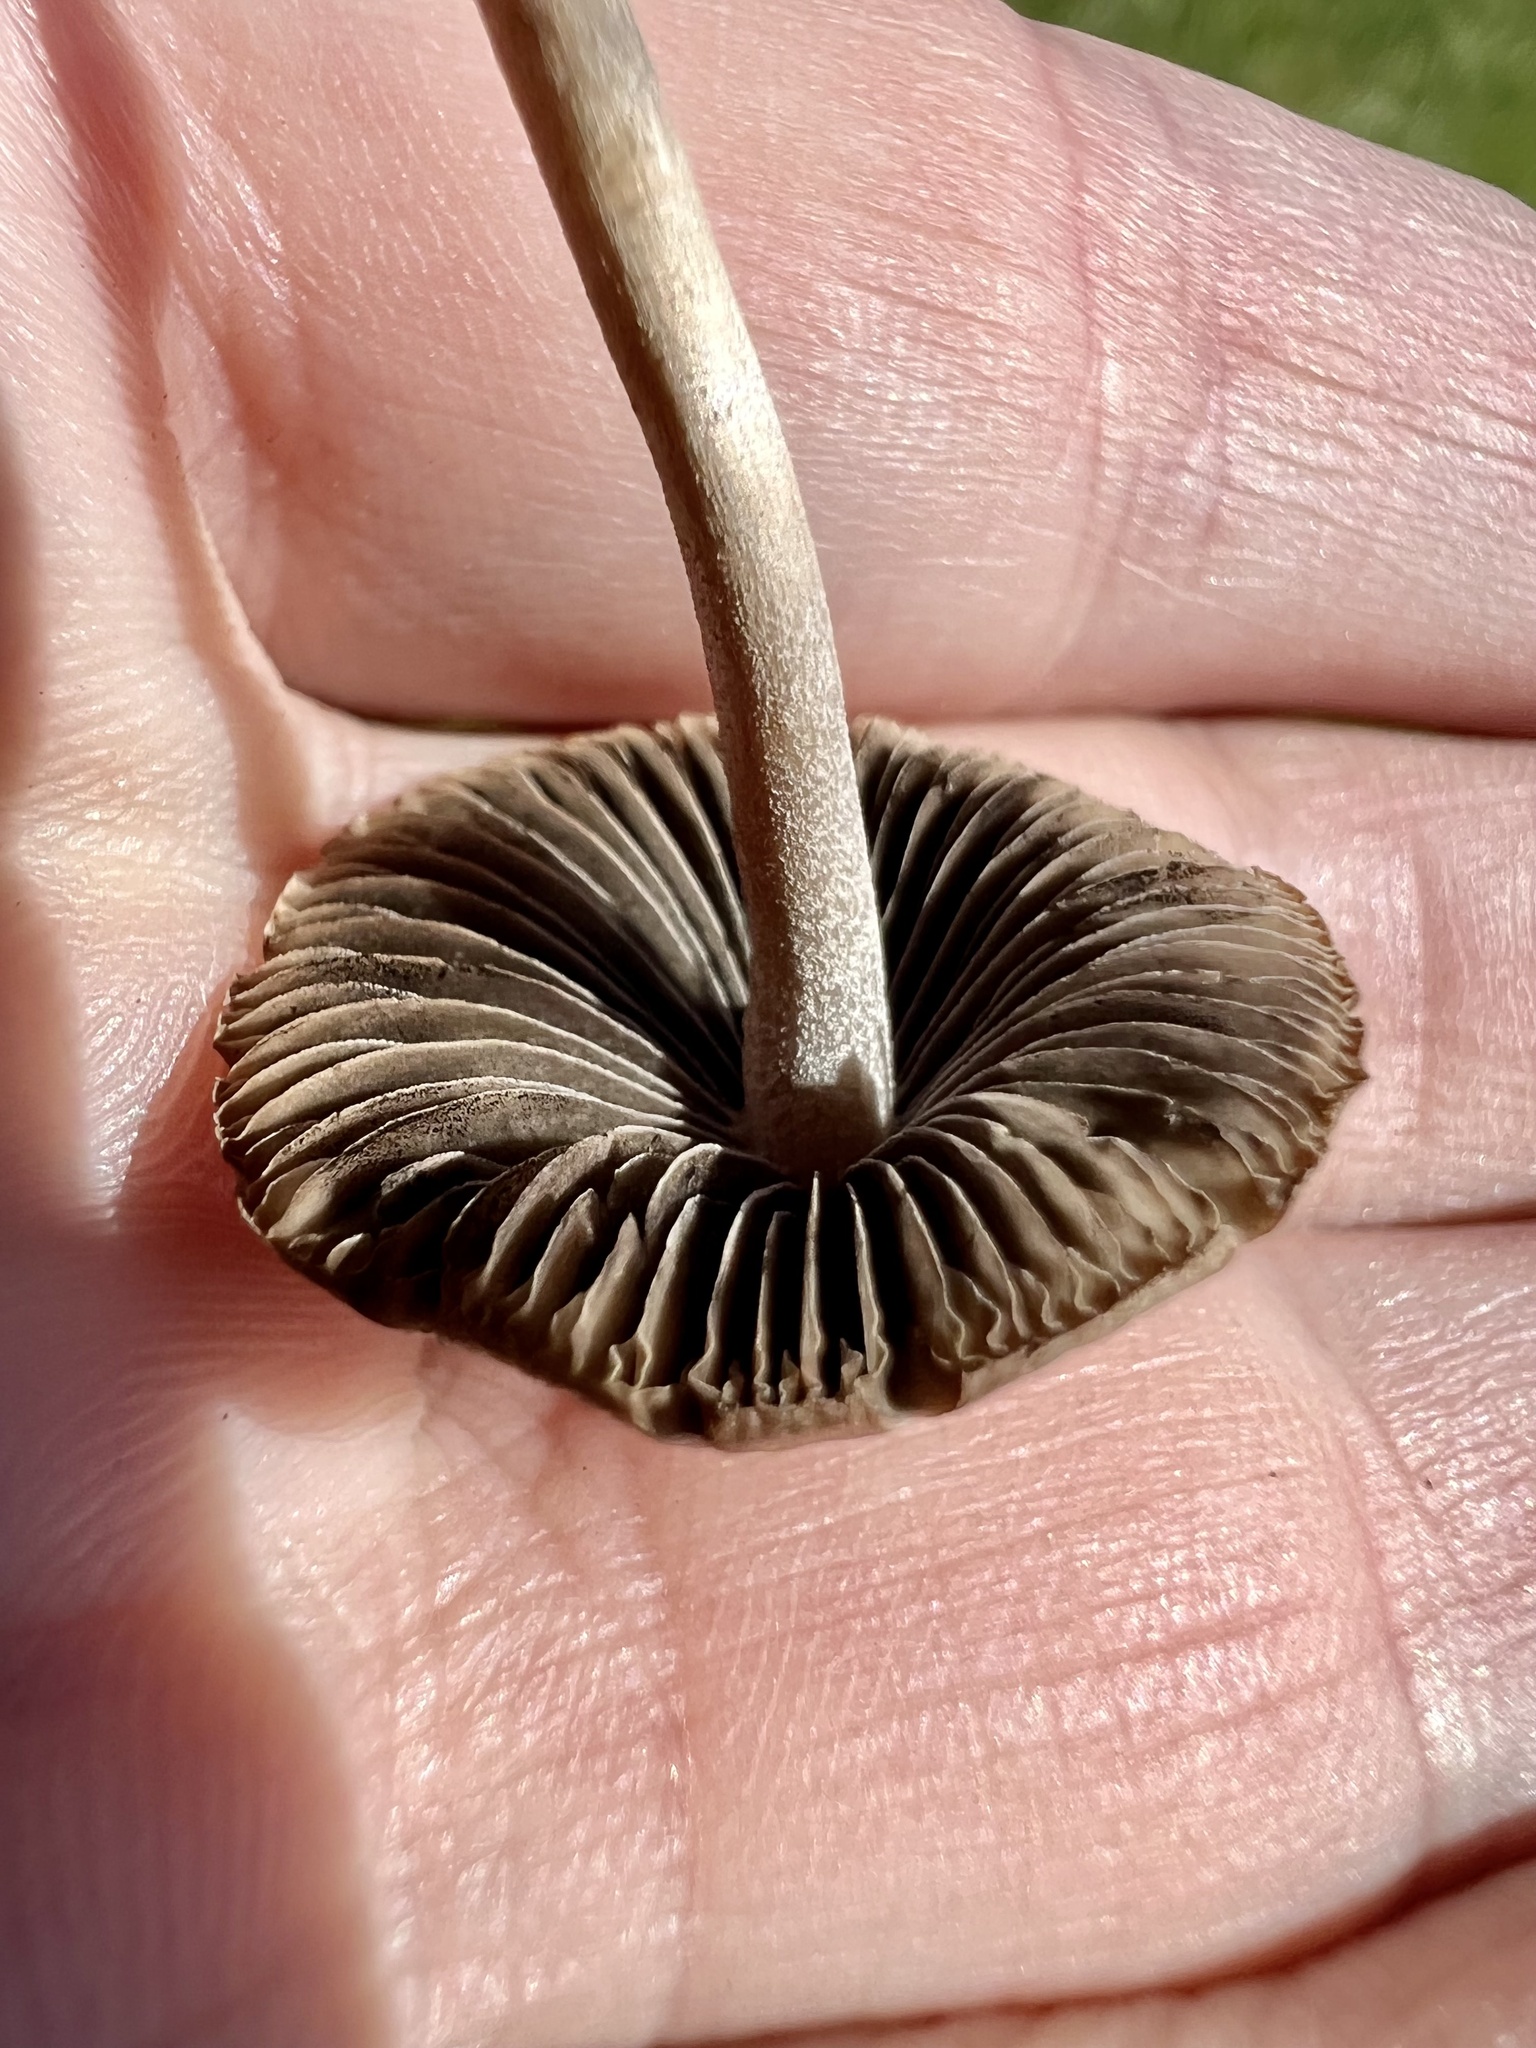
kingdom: Fungi
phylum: Basidiomycota
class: Agaricomycetes
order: Agaricales
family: Bolbitiaceae
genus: Panaeolina
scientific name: Panaeolina foenisecii
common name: Brown hay cap
